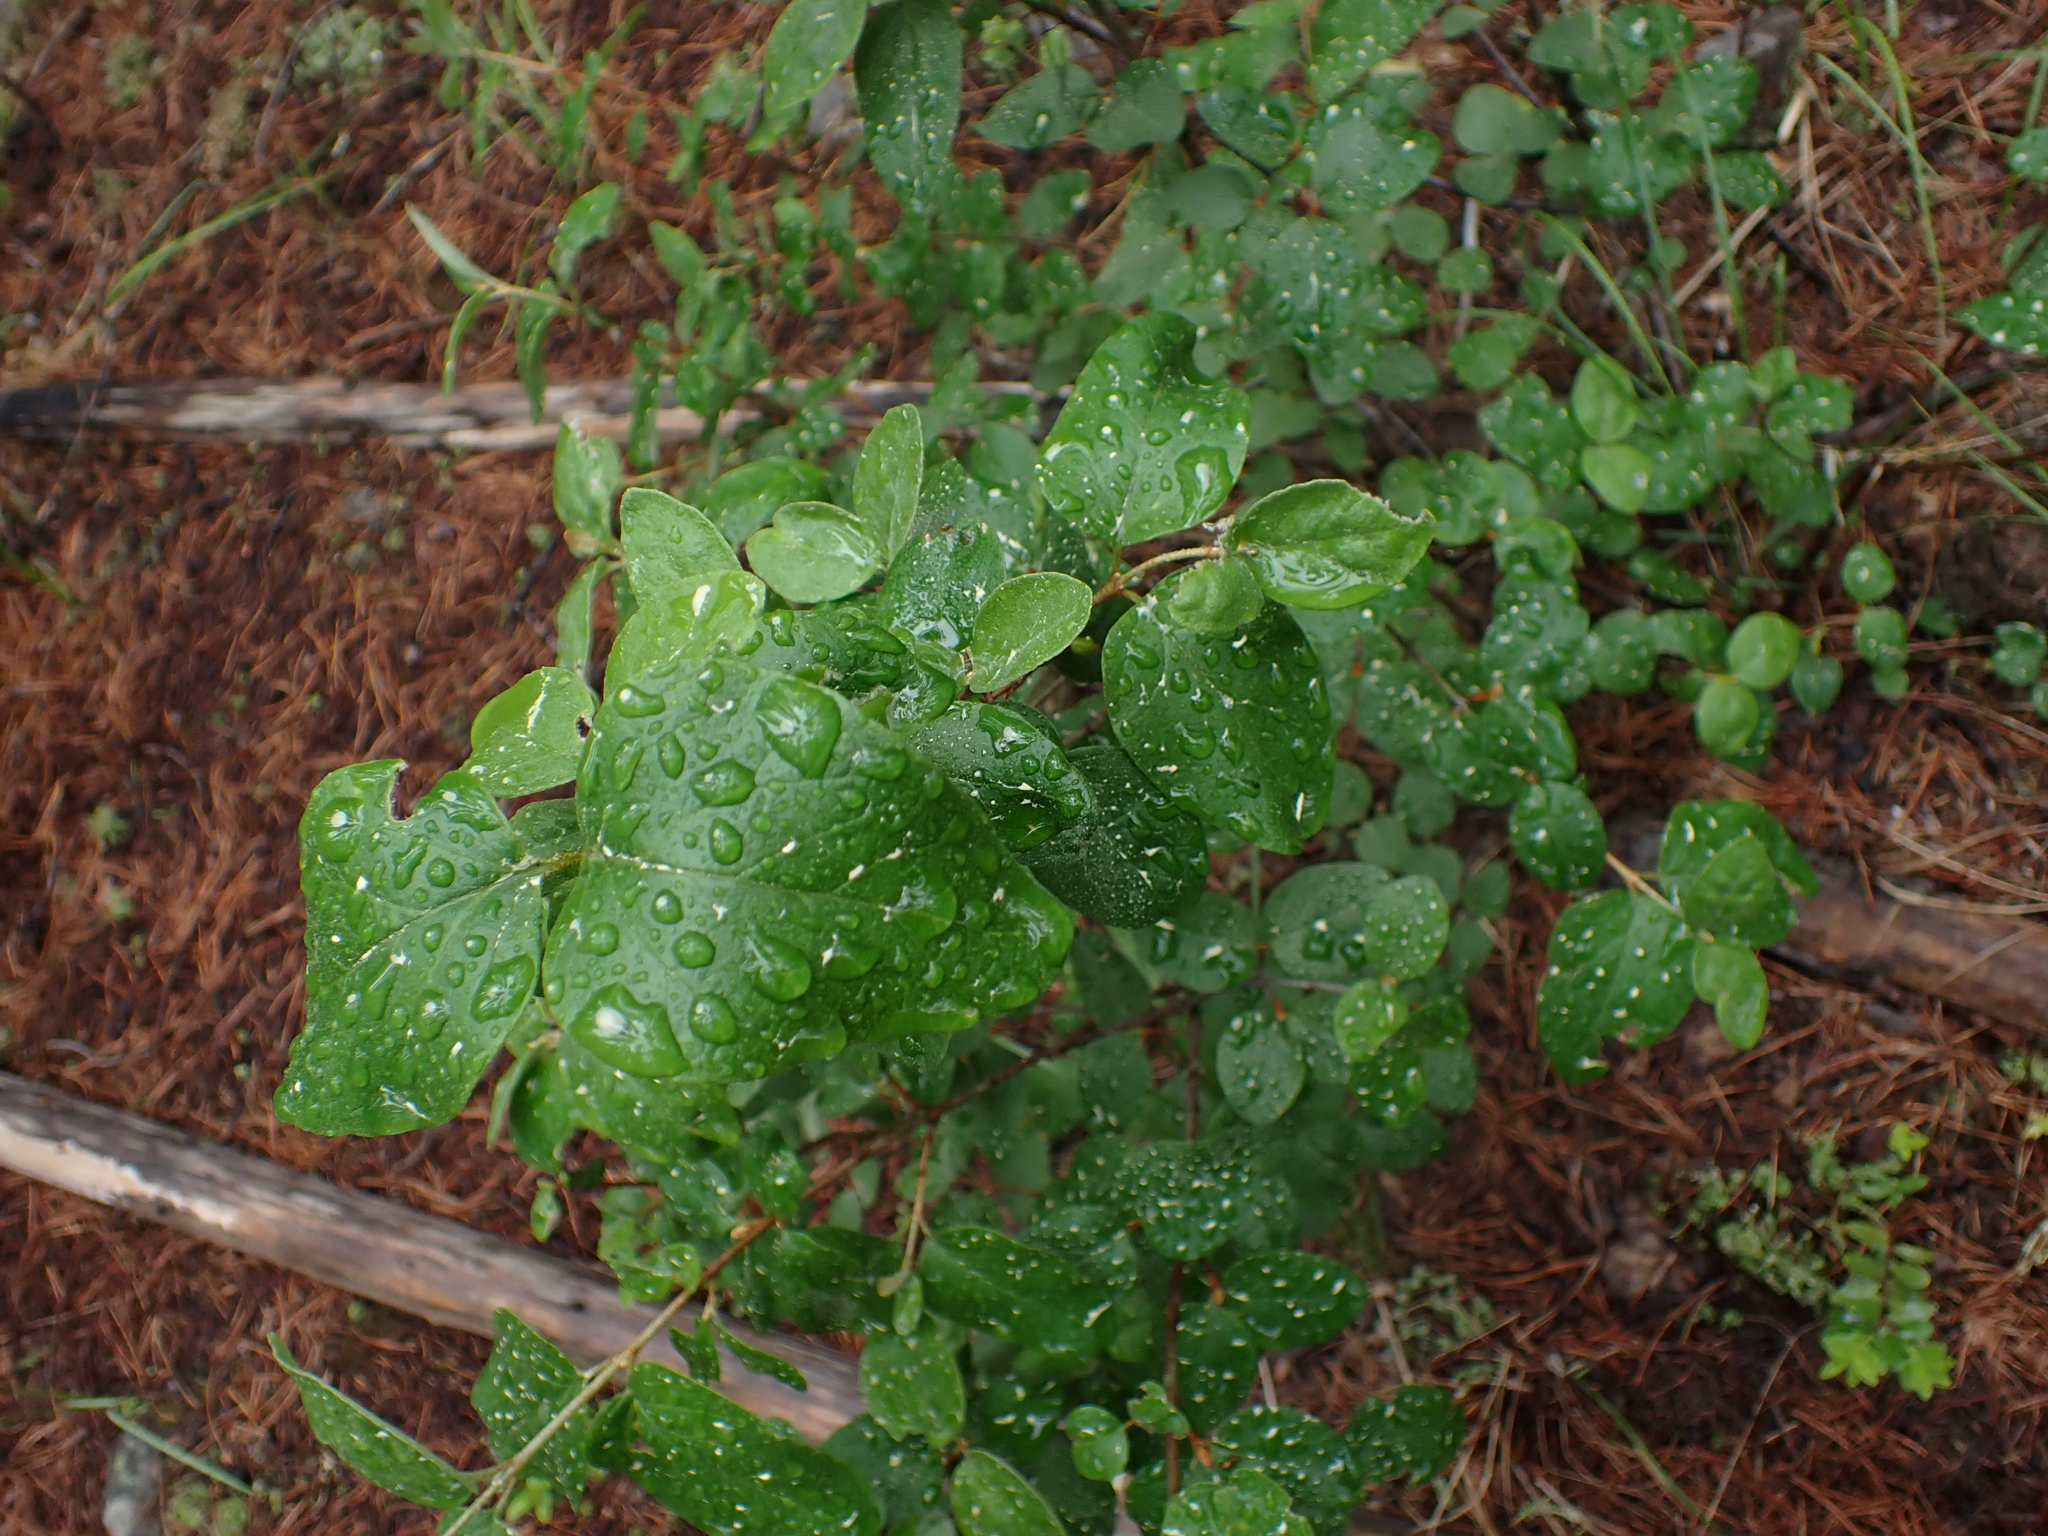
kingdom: Plantae
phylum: Tracheophyta
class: Magnoliopsida
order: Rosales
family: Elaeagnaceae
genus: Shepherdia
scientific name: Shepherdia canadensis
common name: Soapberry
